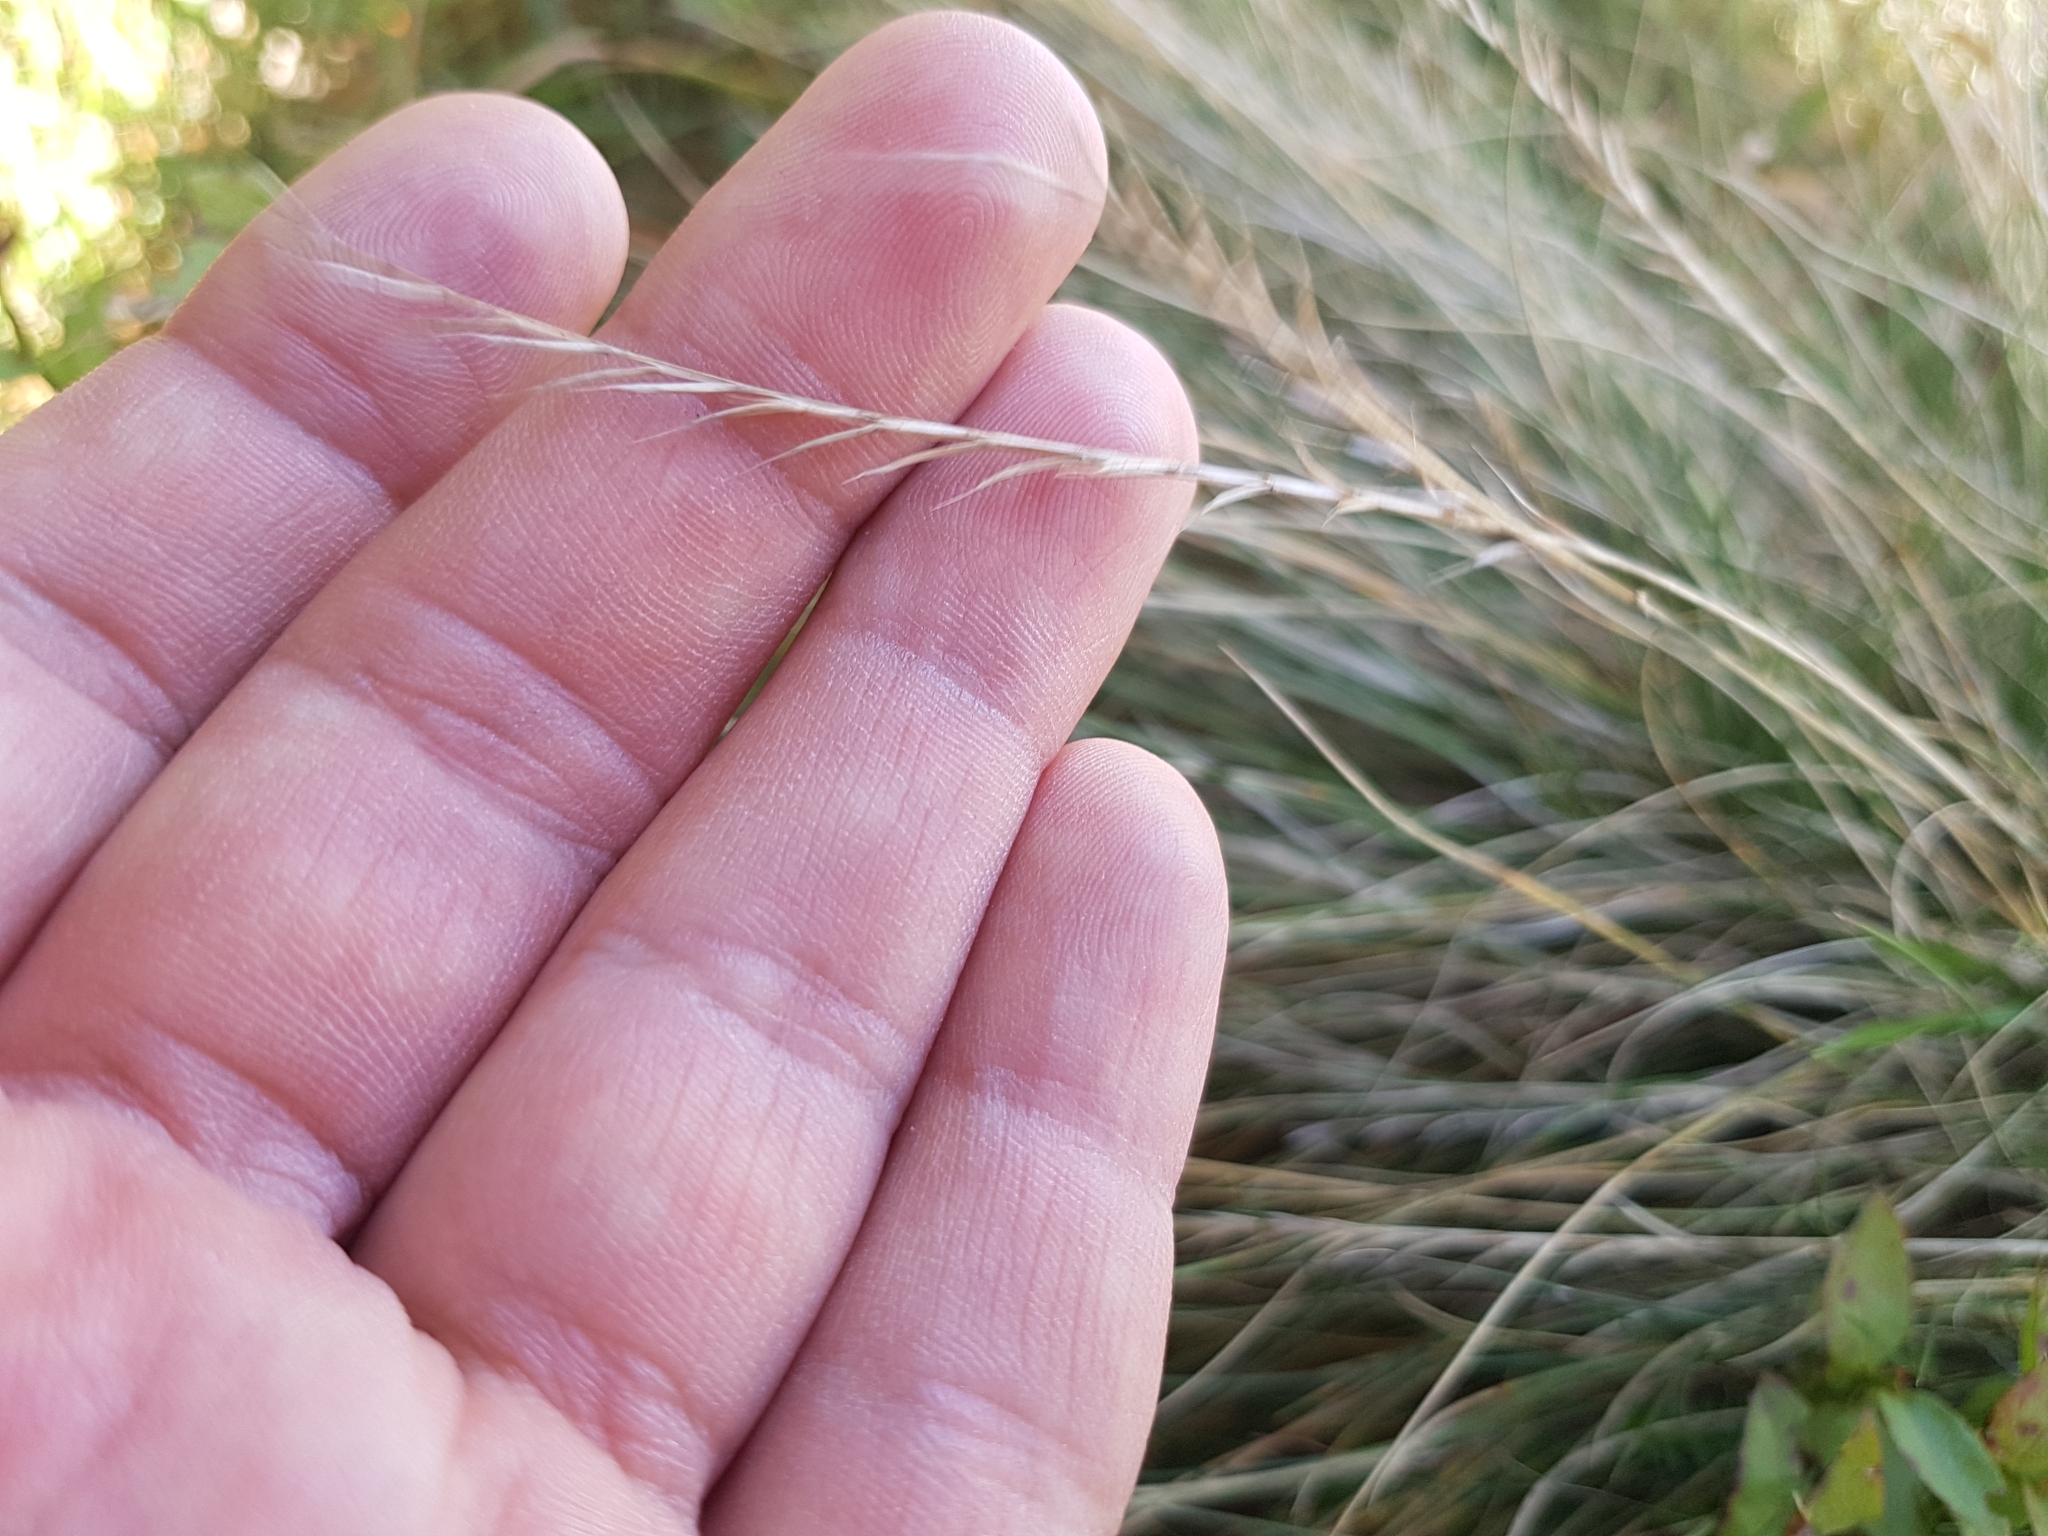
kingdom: Plantae
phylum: Tracheophyta
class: Liliopsida
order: Poales
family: Poaceae
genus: Nardus
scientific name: Nardus stricta
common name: Mat-grass
